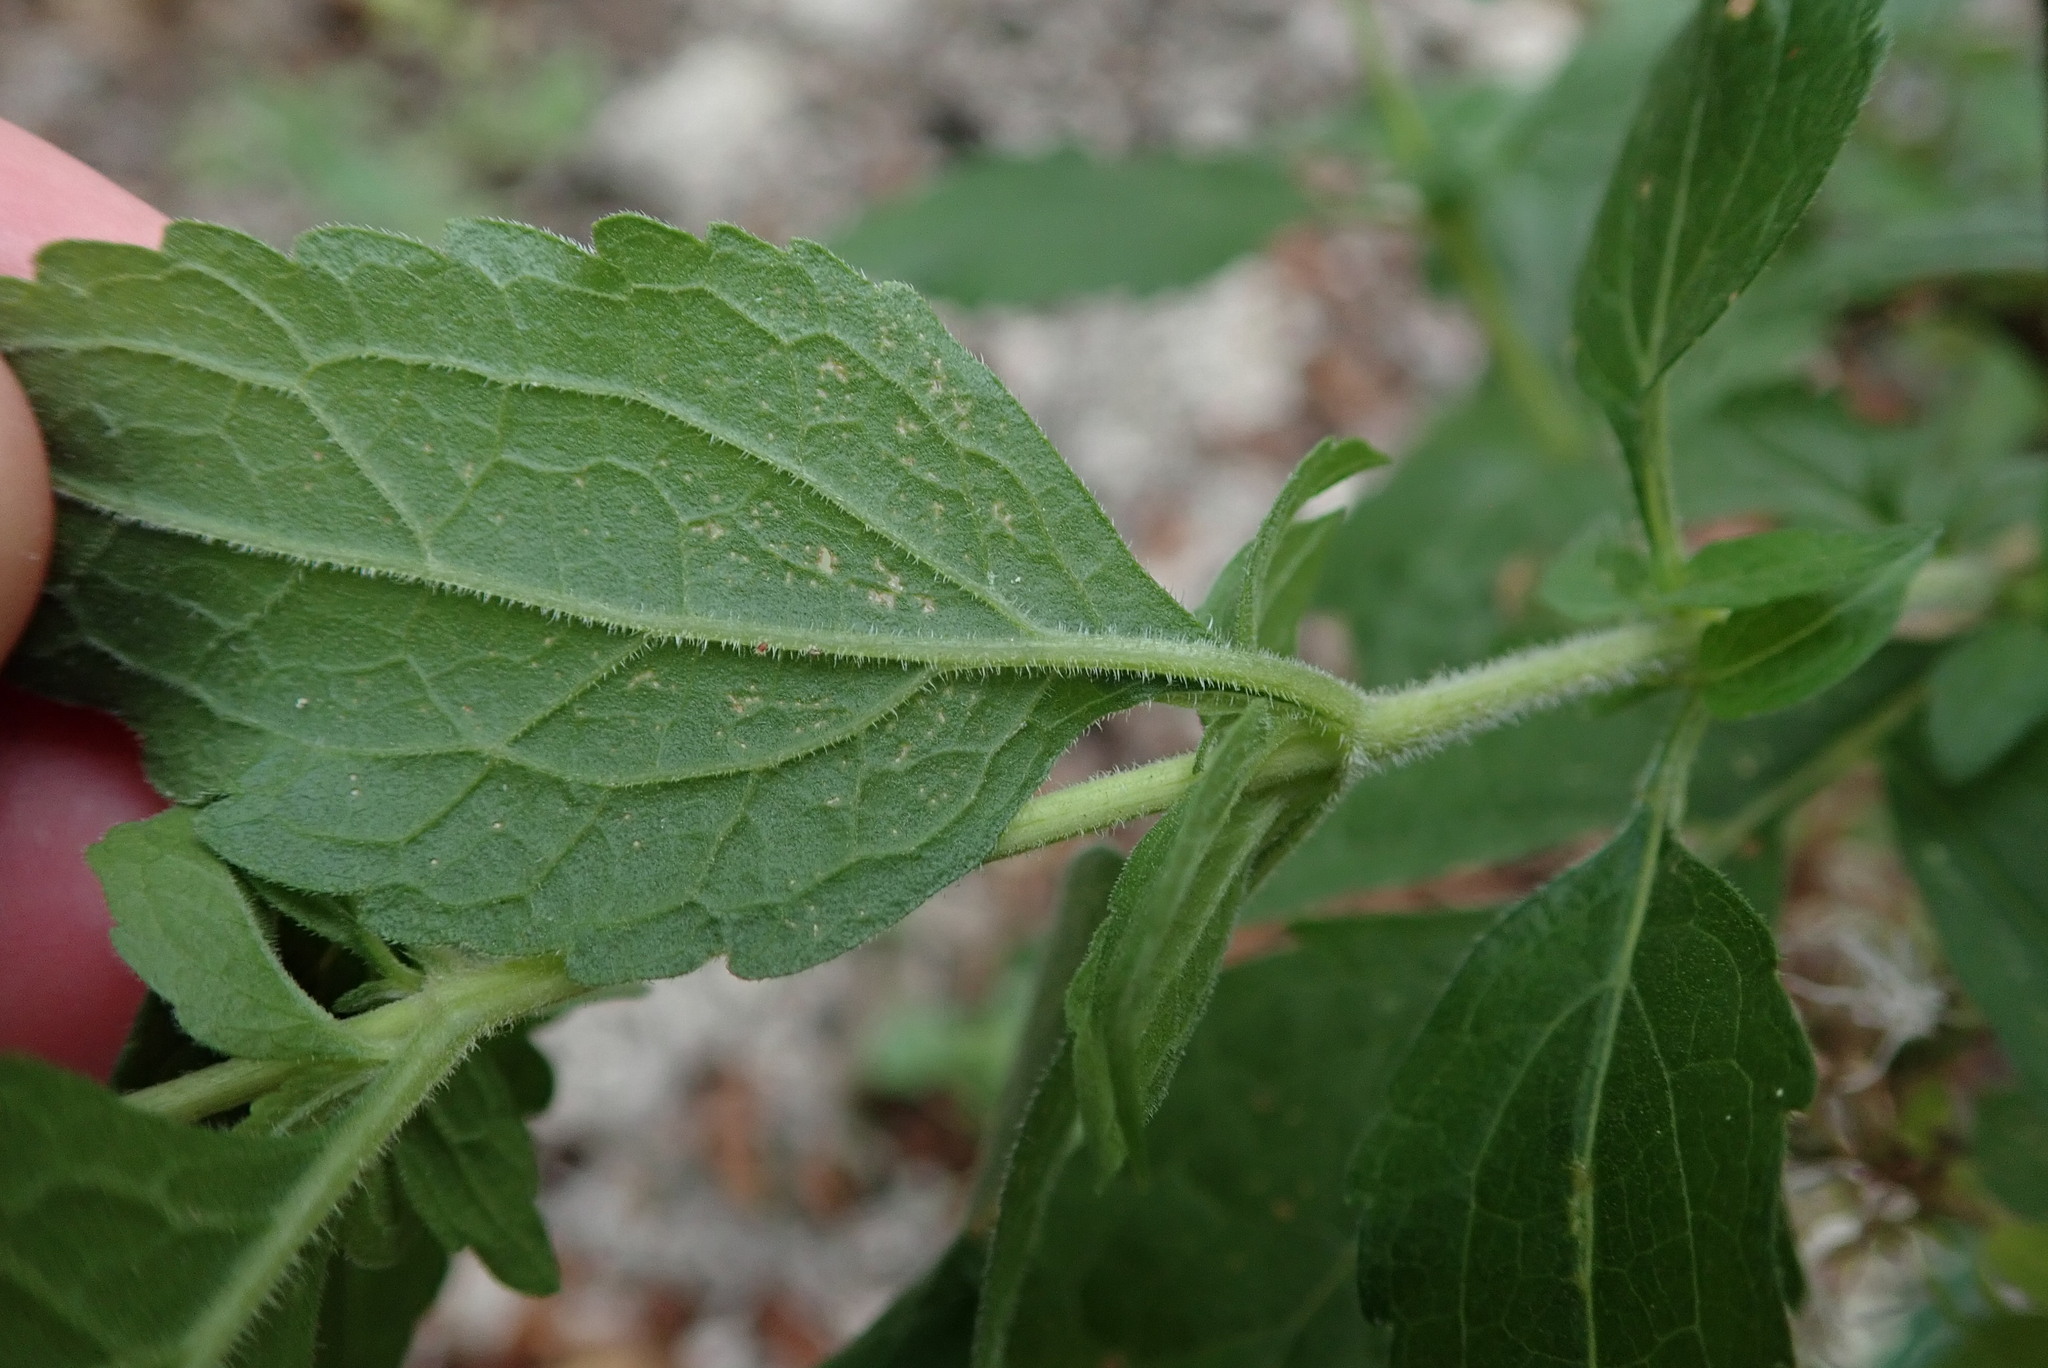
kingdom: Plantae
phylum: Tracheophyta
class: Magnoliopsida
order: Asterales
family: Asteraceae
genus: Eupatorium
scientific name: Eupatorium cannabinum
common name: Hemp-agrimony
